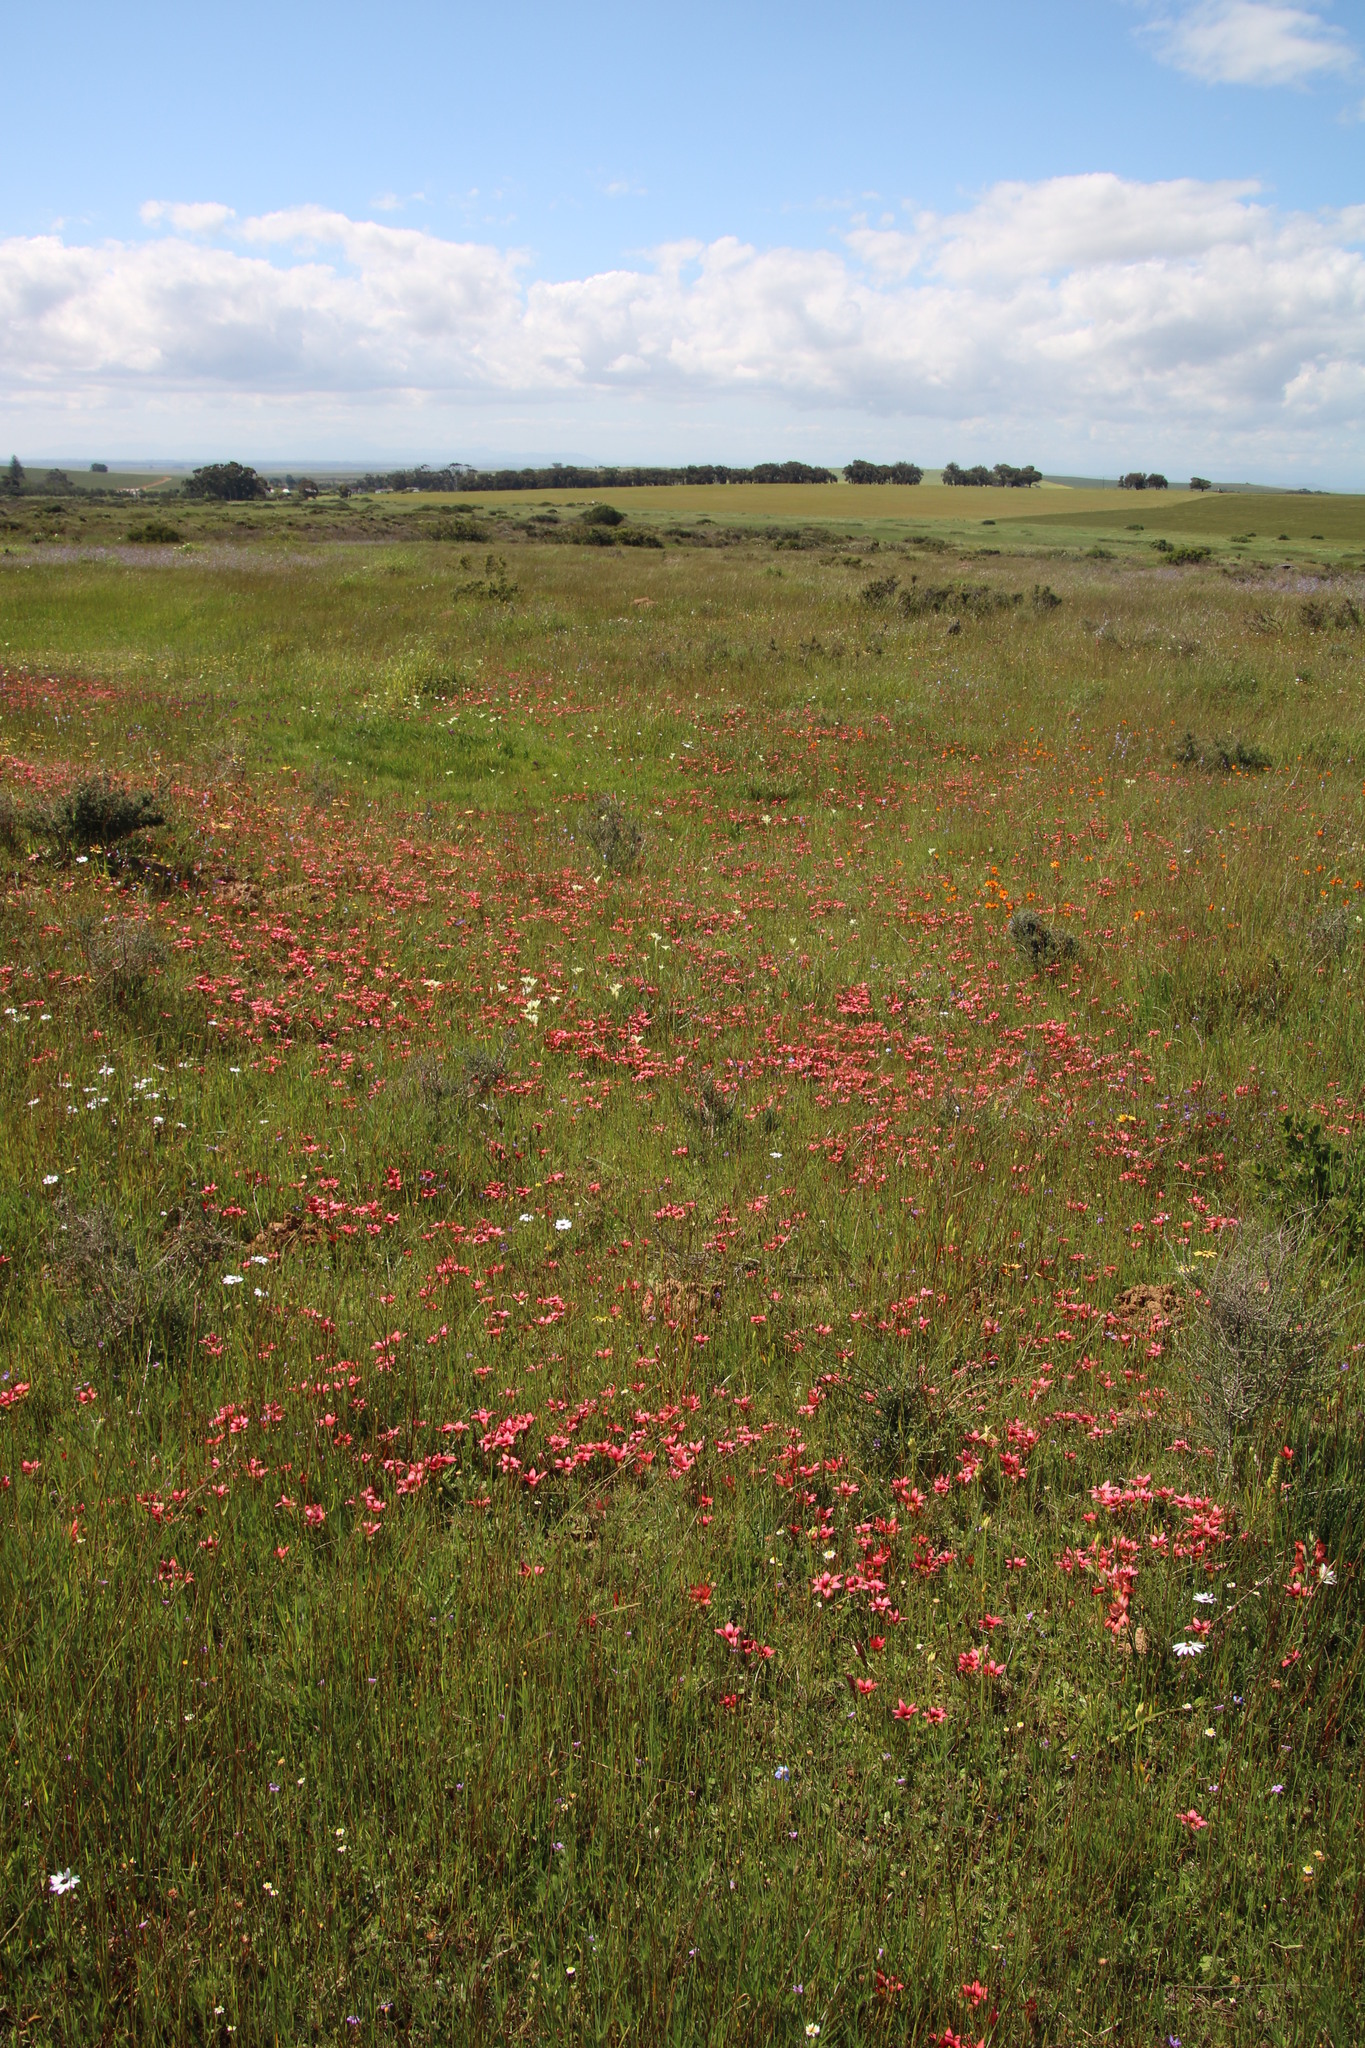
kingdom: Plantae
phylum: Tracheophyta
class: Liliopsida
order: Asparagales
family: Iridaceae
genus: Romulea
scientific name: Romulea eximia
